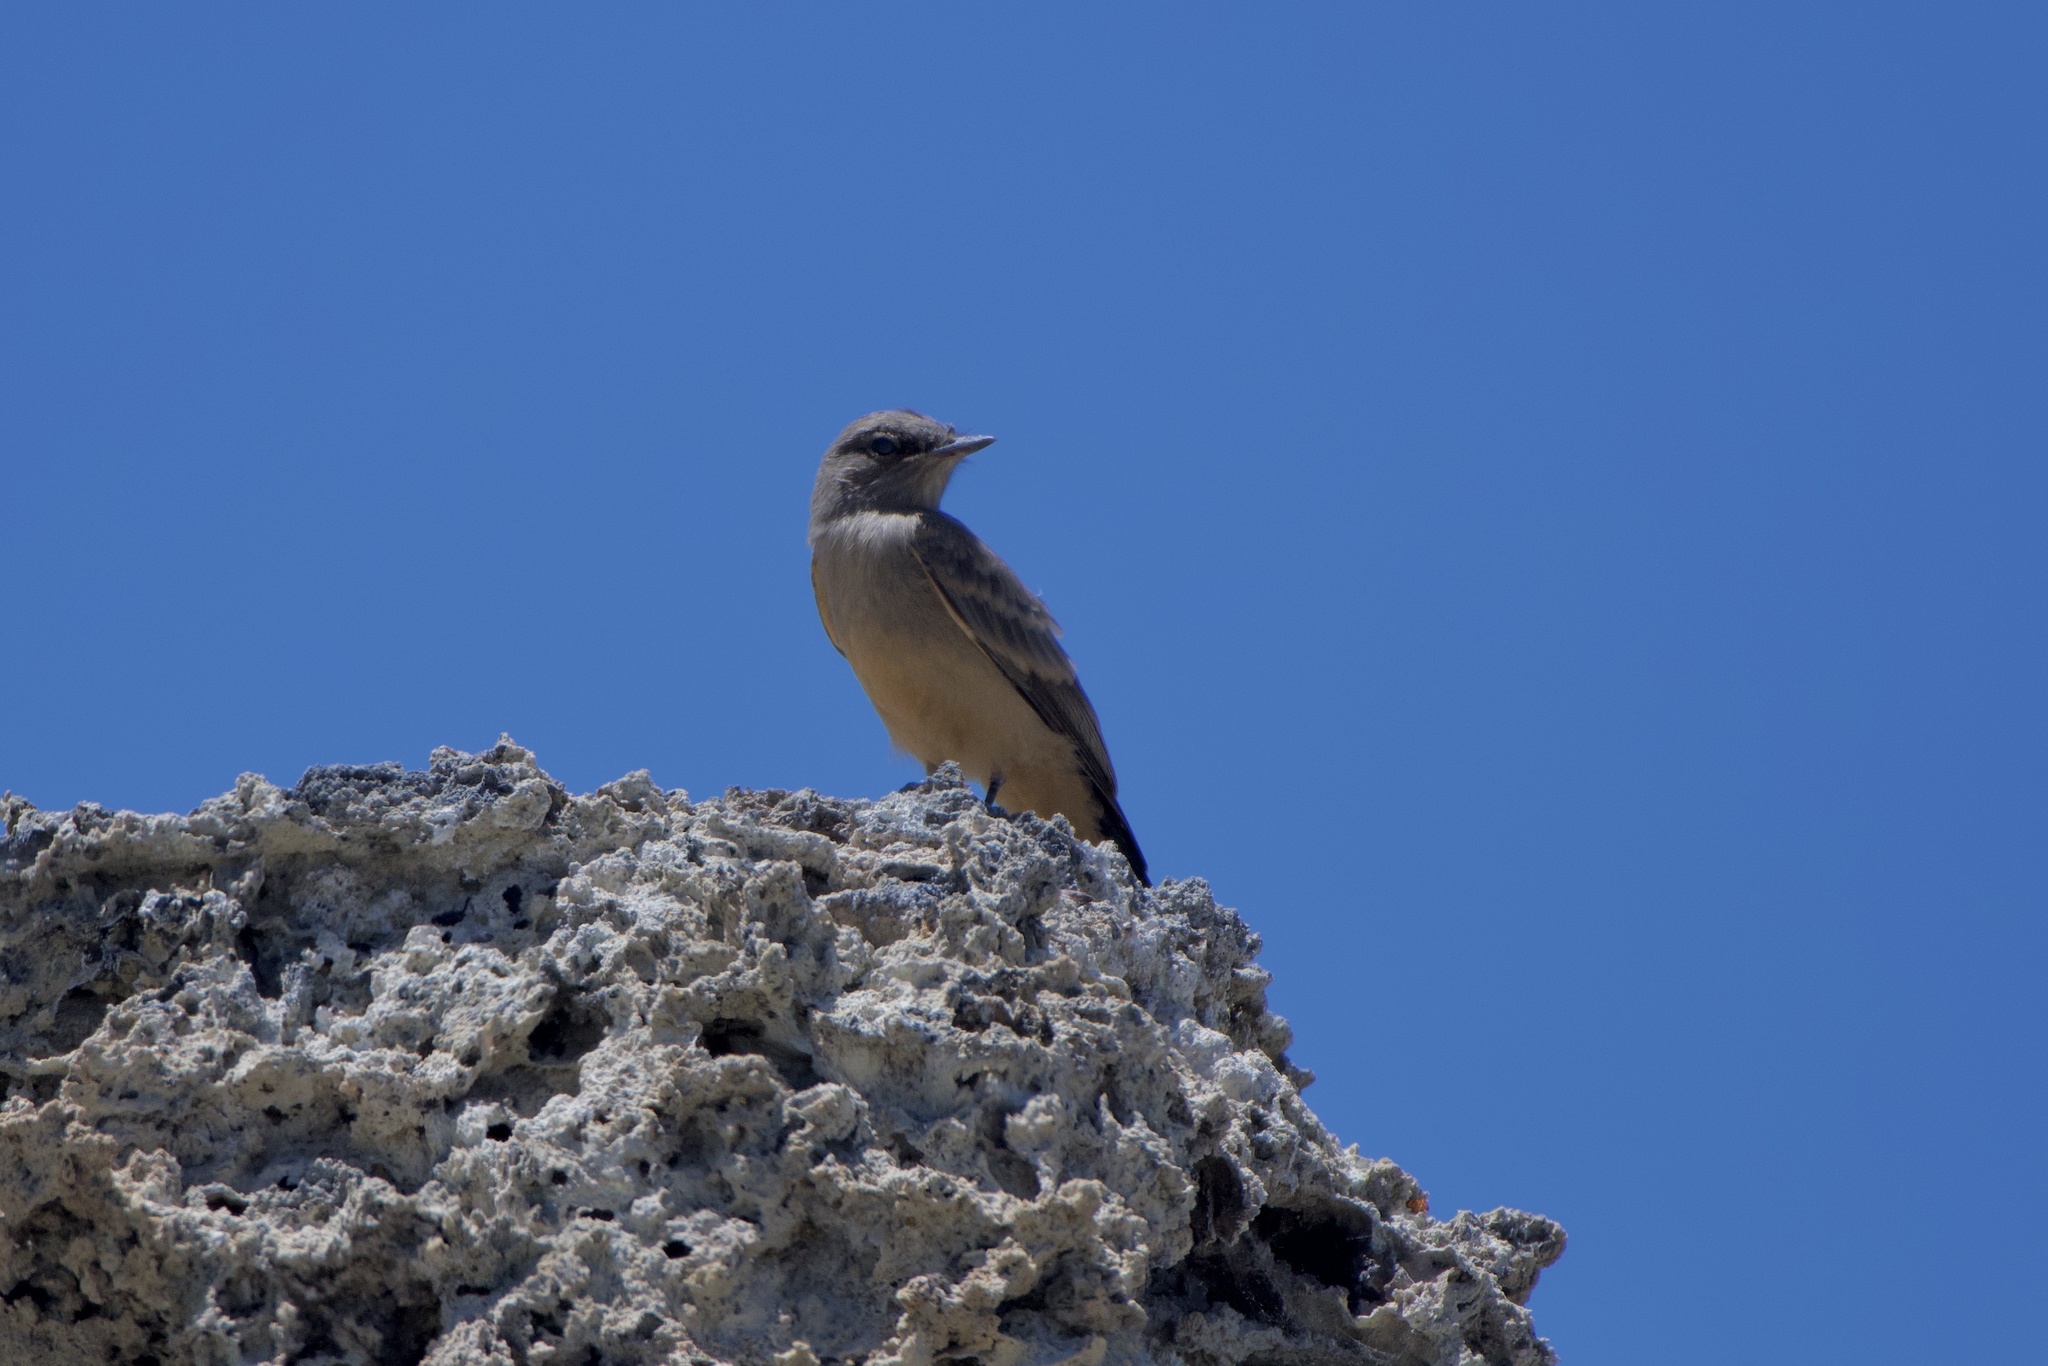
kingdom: Animalia
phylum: Chordata
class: Aves
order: Passeriformes
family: Tyrannidae
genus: Sayornis
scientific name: Sayornis saya
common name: Say's phoebe
